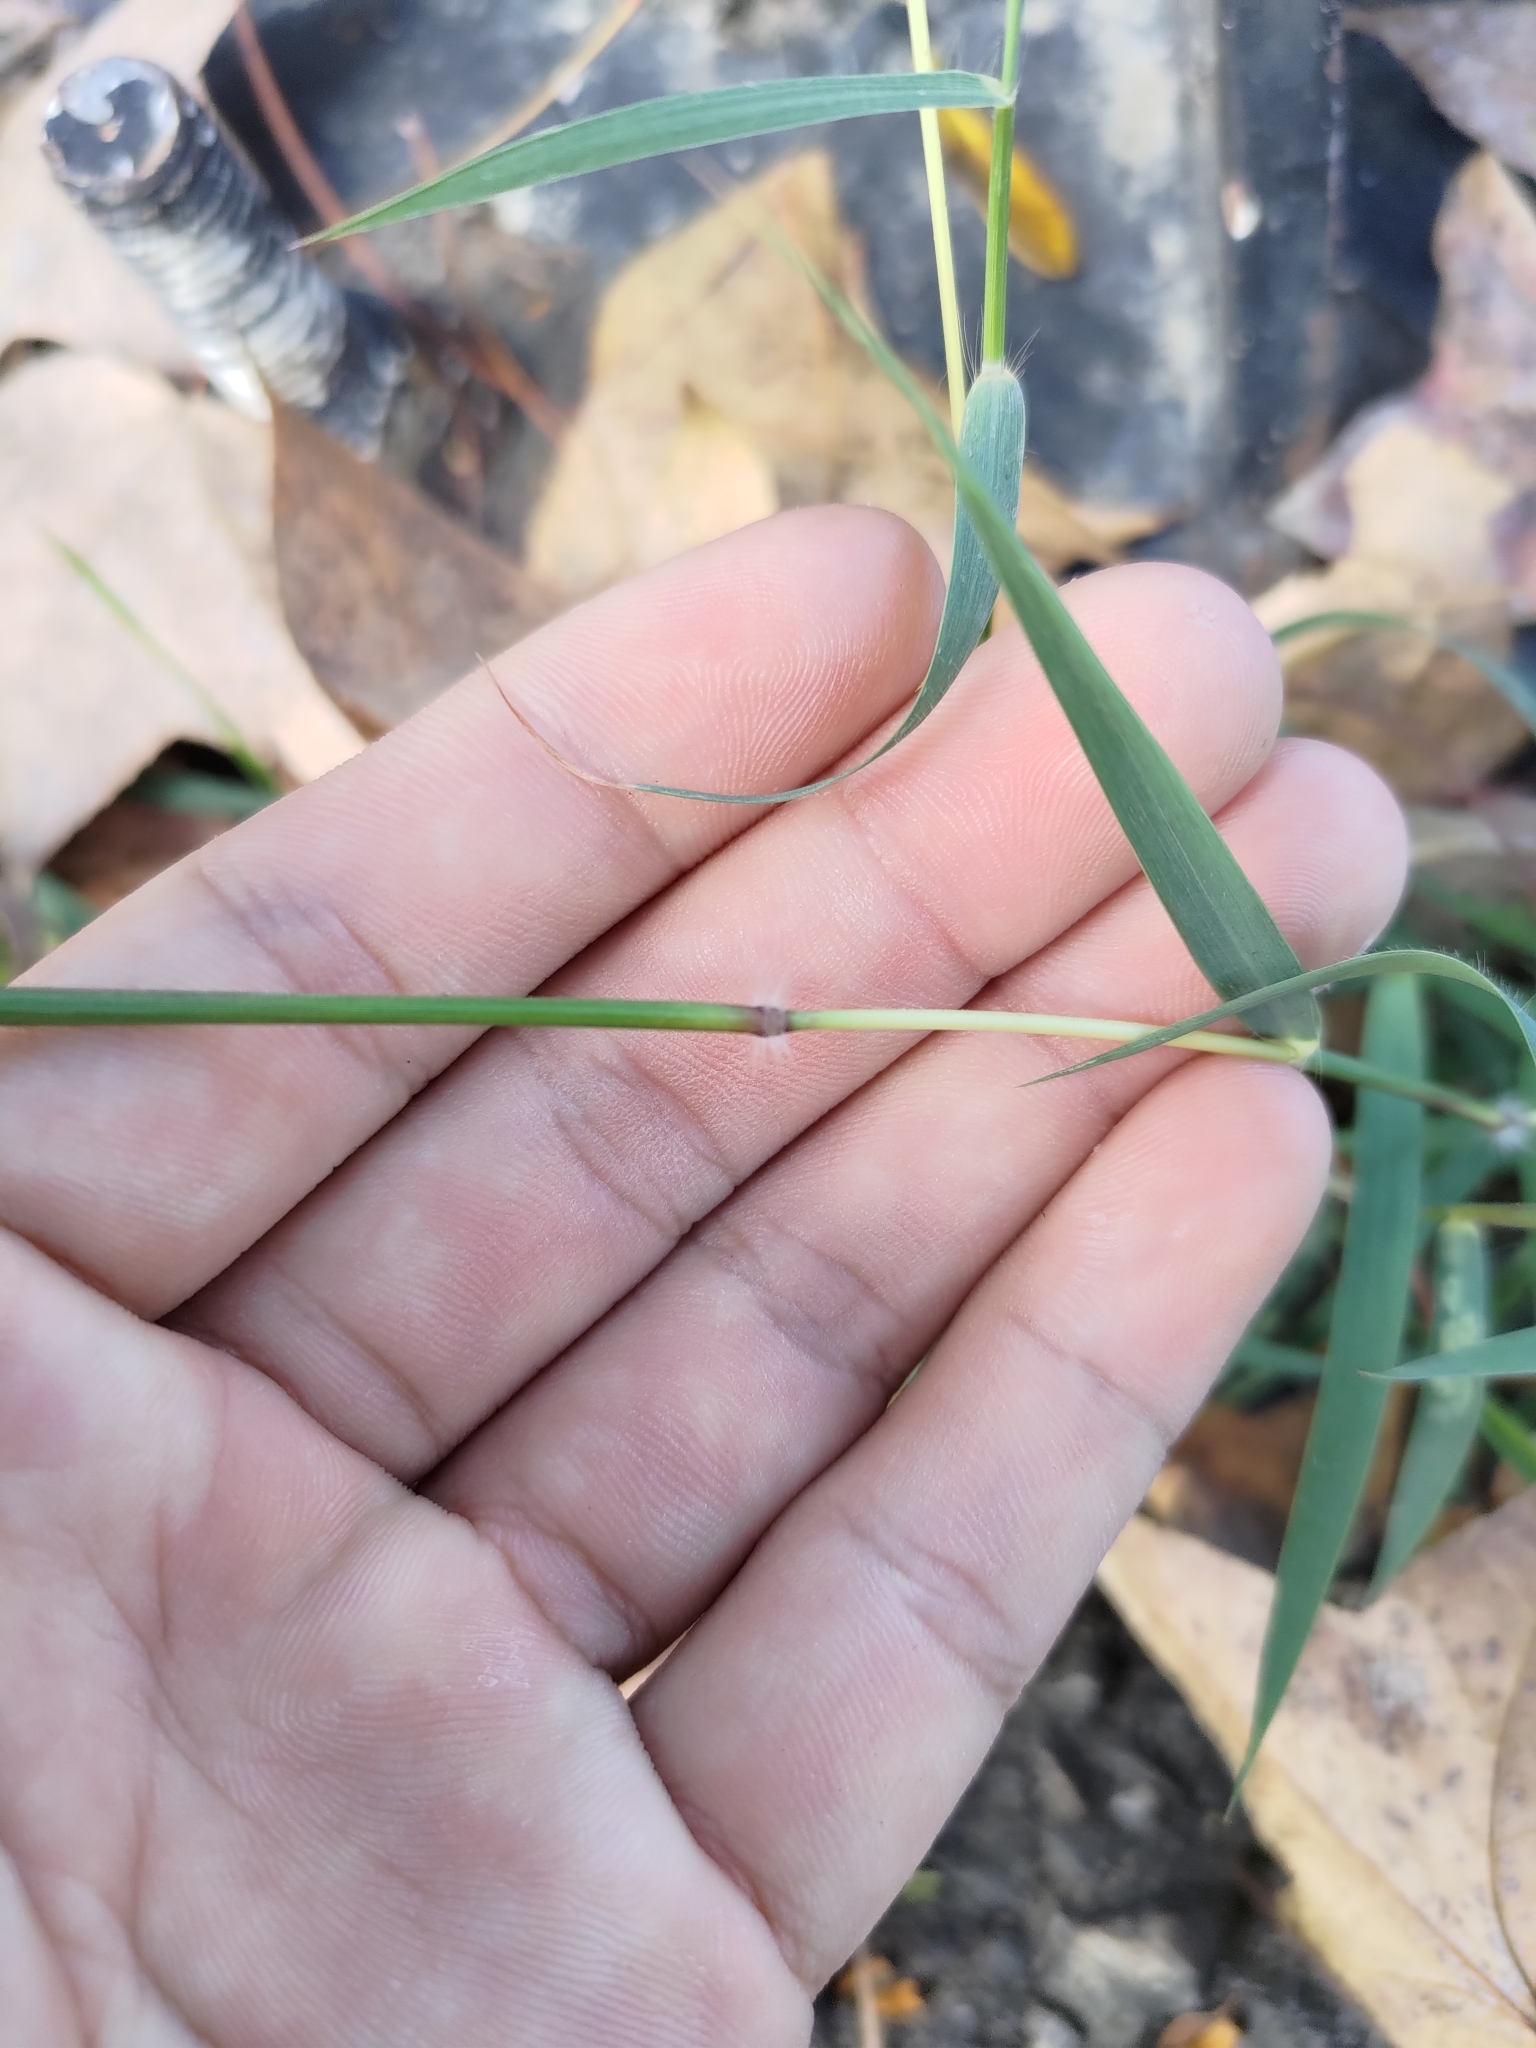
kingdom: Plantae
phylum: Tracheophyta
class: Liliopsida
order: Poales
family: Poaceae
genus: Dichanthium
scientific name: Dichanthium annulatum
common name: Kleberg's bluestem
